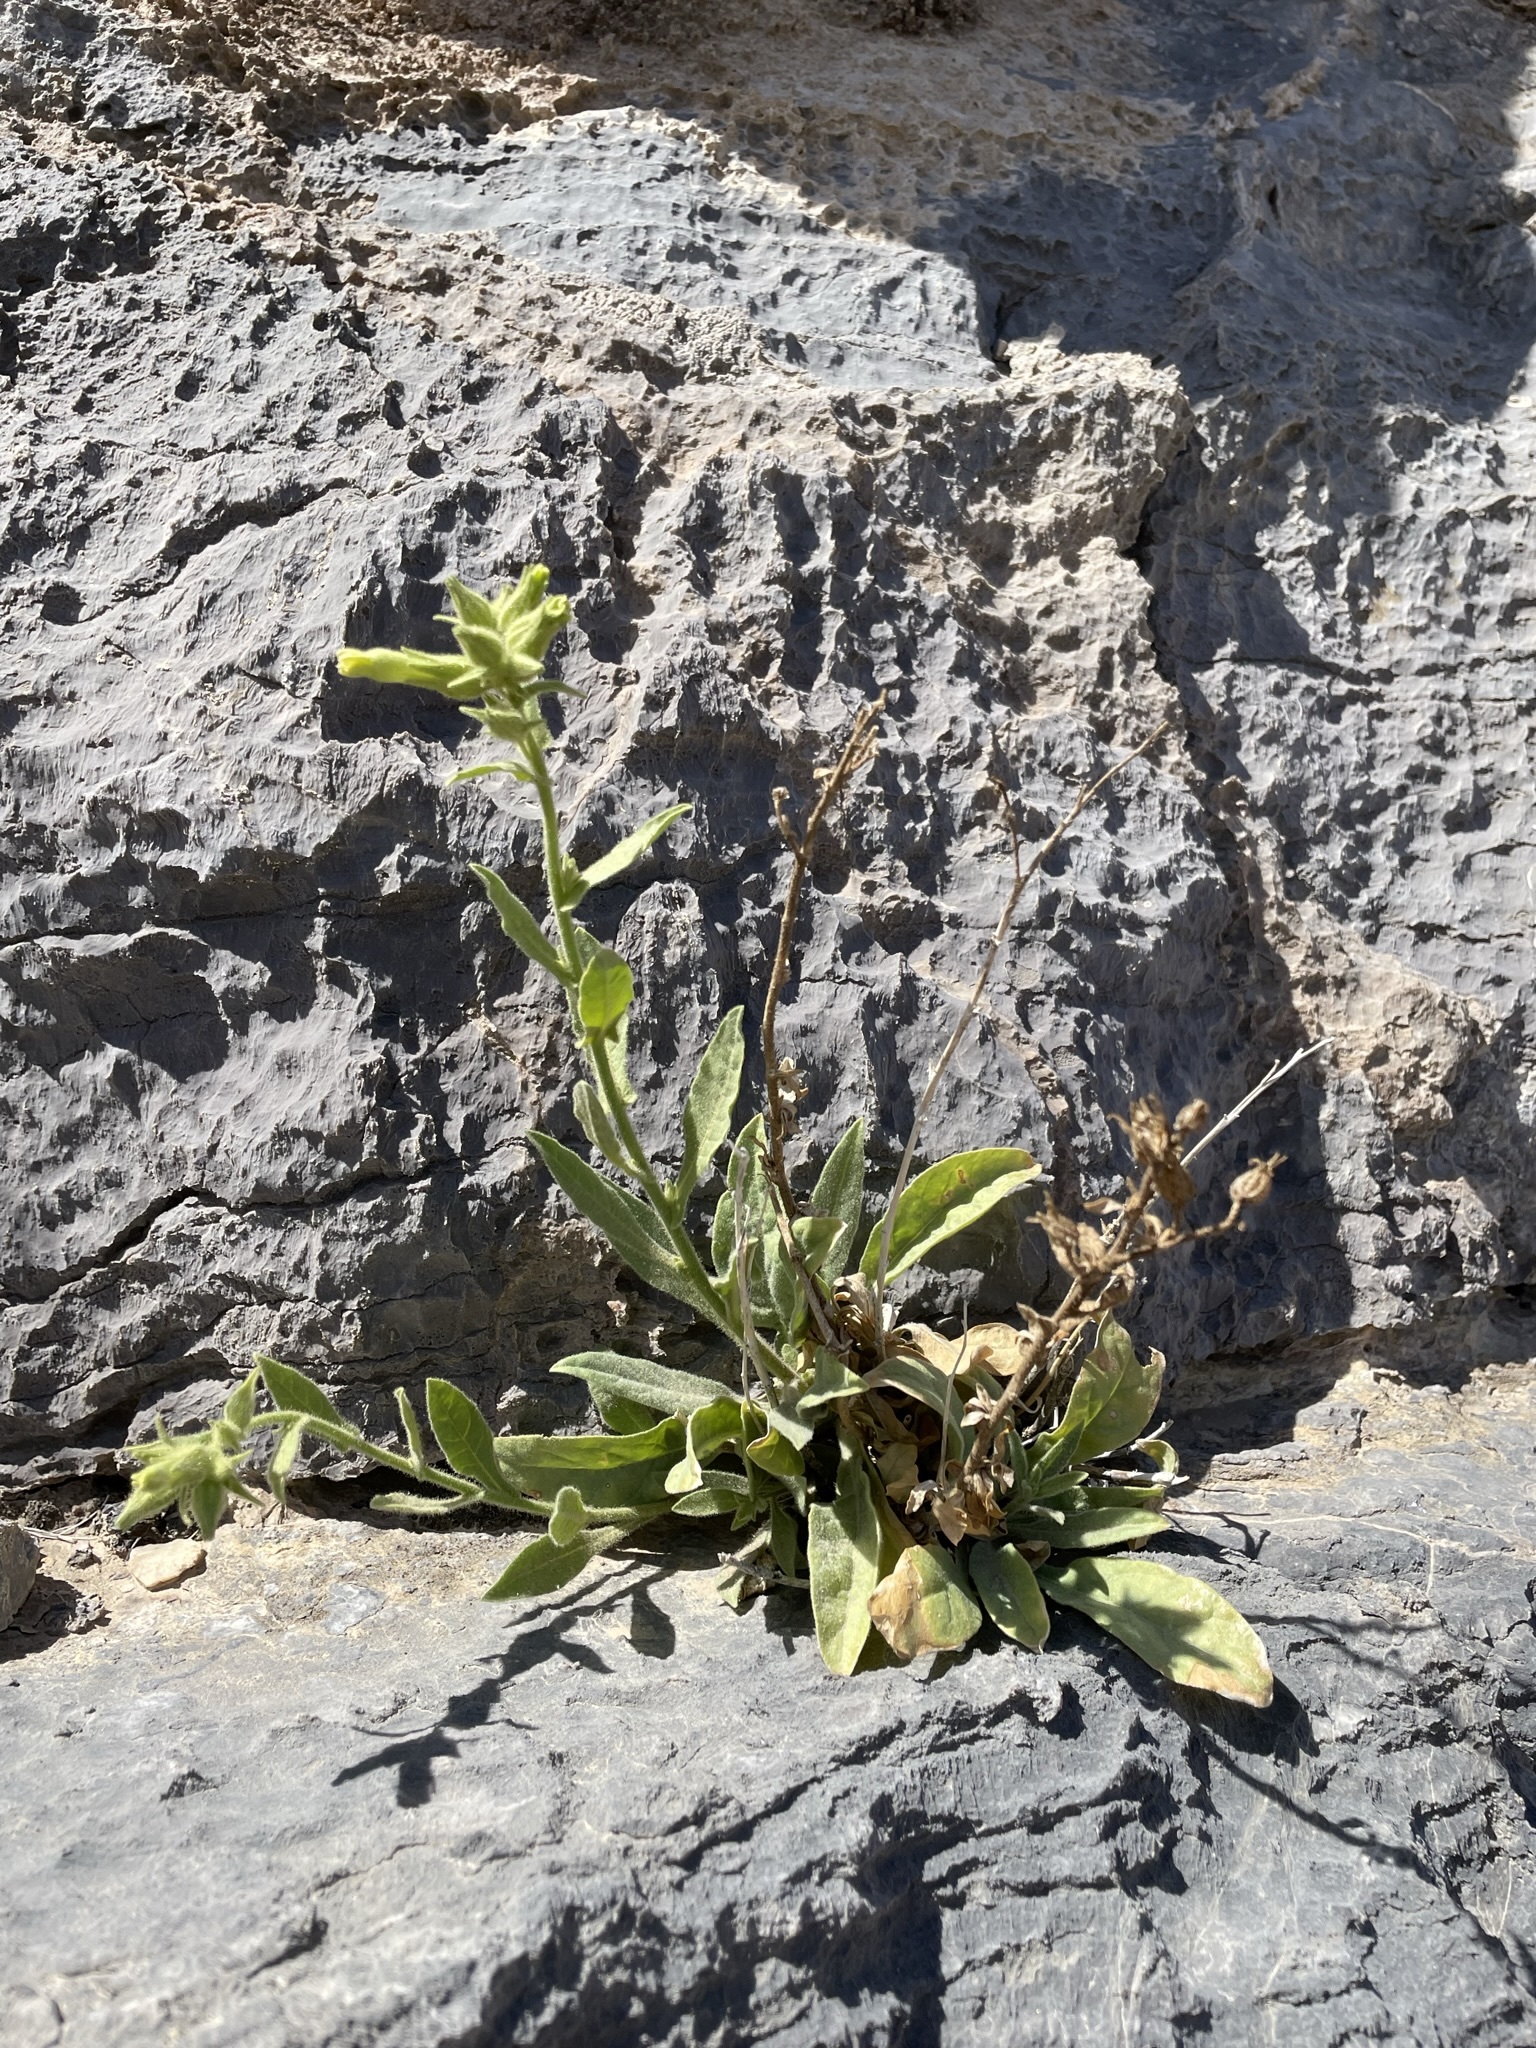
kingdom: Plantae
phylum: Tracheophyta
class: Magnoliopsida
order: Solanales
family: Solanaceae
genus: Nicotiana
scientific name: Nicotiana obtusifolia
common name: Desert tobacco
